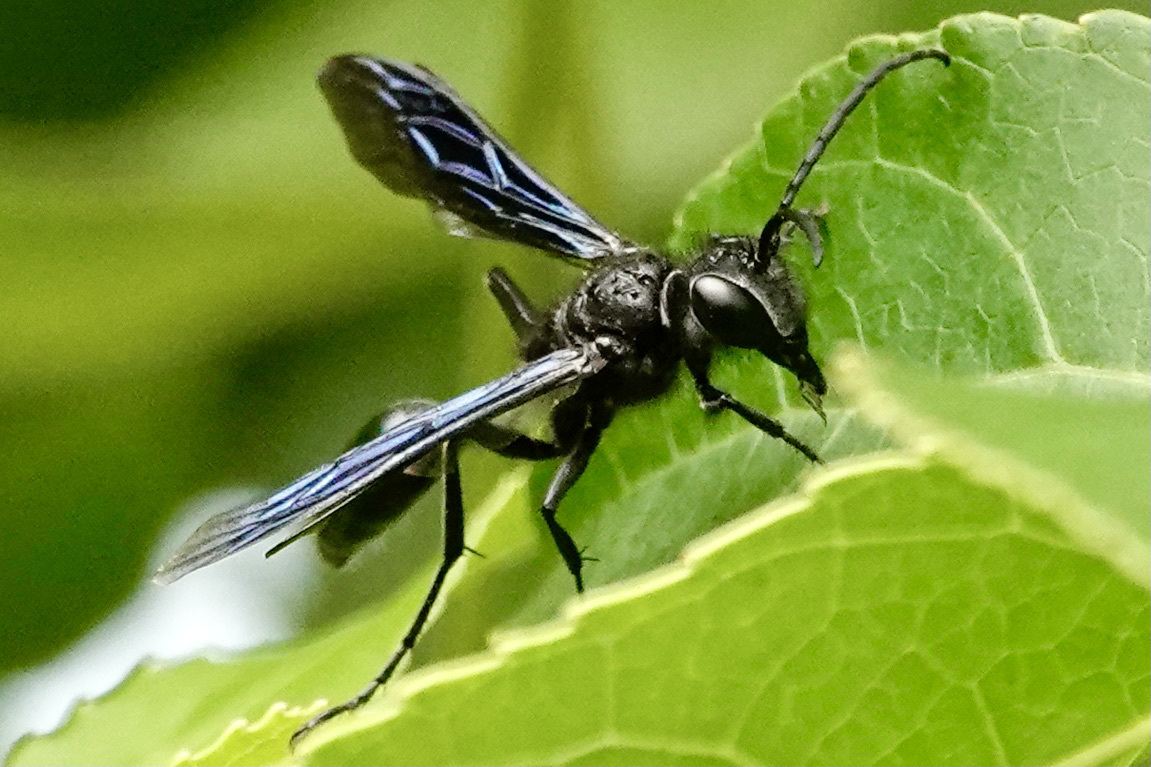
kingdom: Animalia
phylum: Arthropoda
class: Insecta
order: Hymenoptera
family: Sphecidae
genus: Isodontia
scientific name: Isodontia philadelphica
